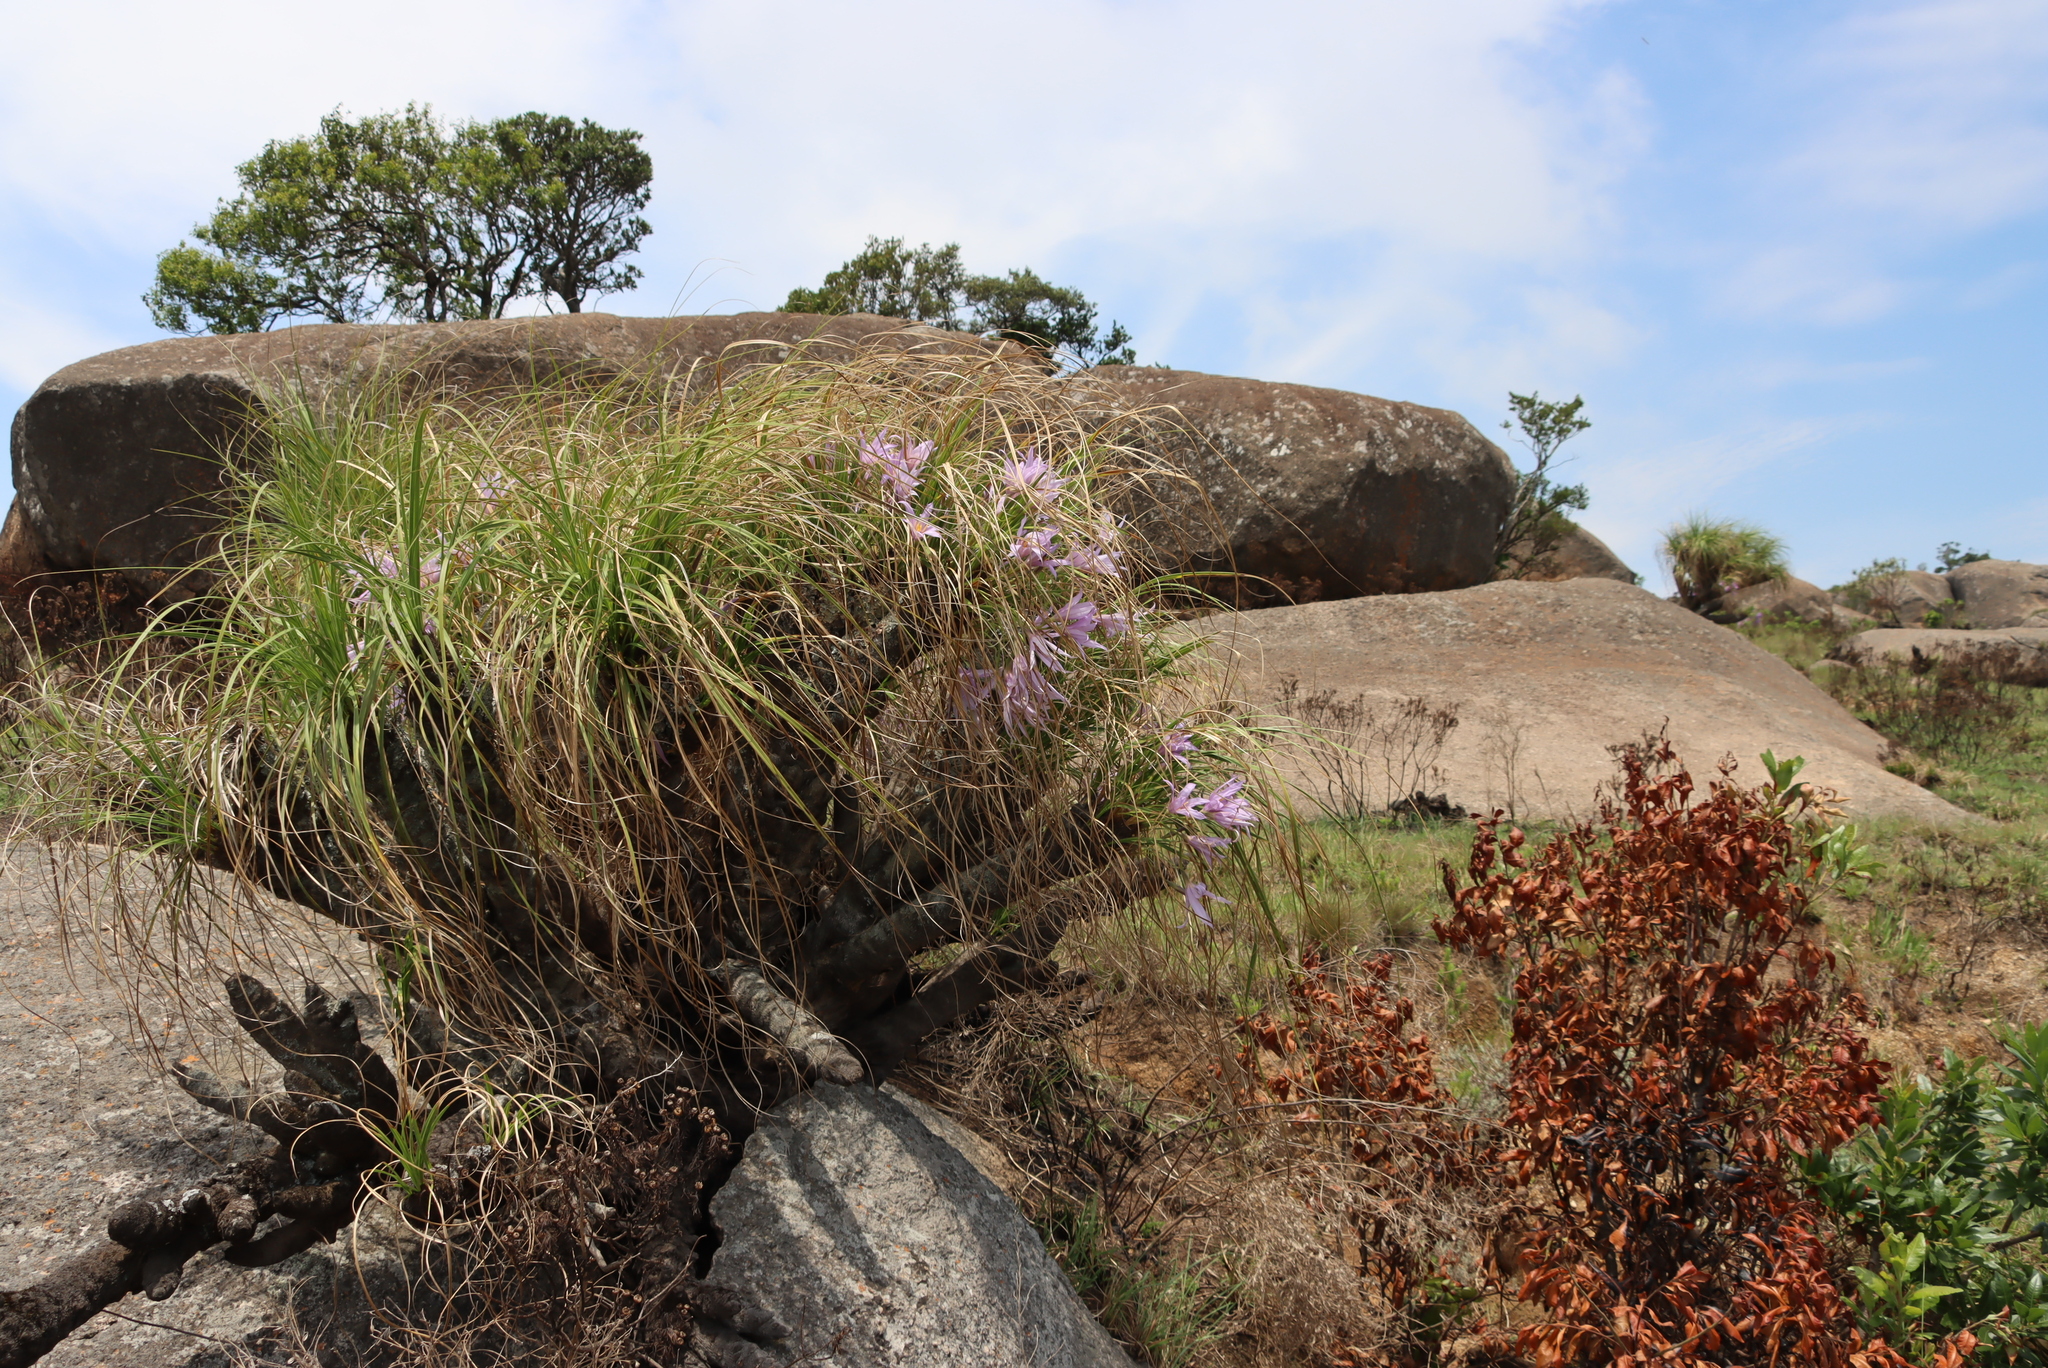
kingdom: Plantae
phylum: Tracheophyta
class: Liliopsida
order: Pandanales
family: Velloziaceae
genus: Xerophyta
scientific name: Xerophyta retinervis
